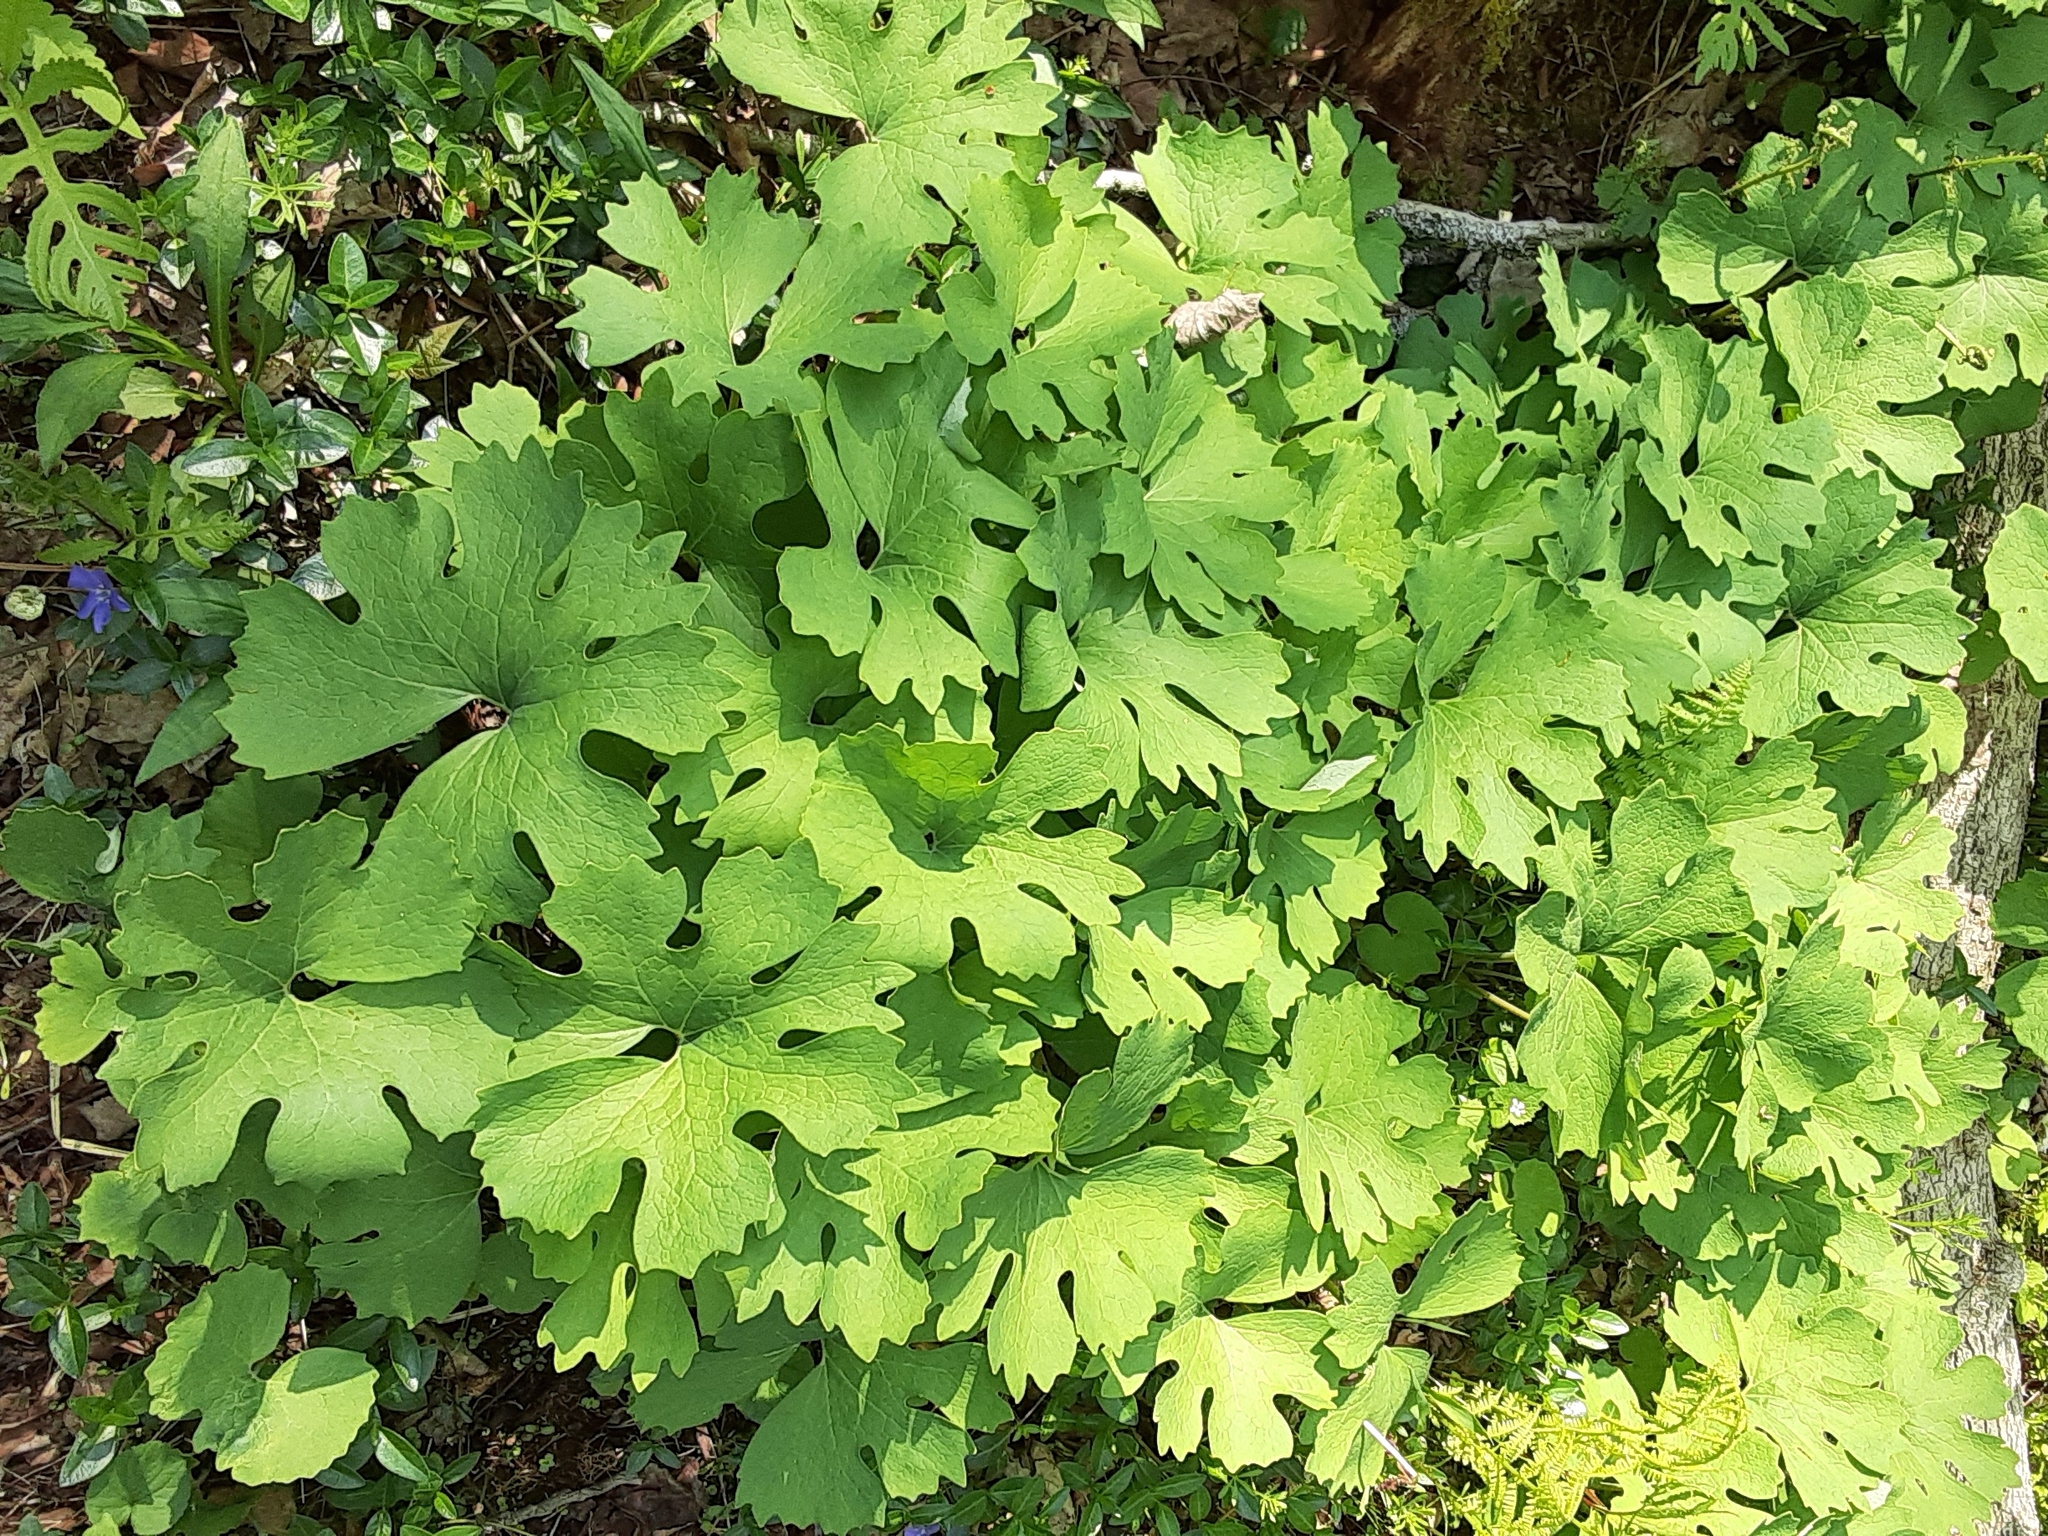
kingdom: Plantae
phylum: Tracheophyta
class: Magnoliopsida
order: Ranunculales
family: Papaveraceae
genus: Sanguinaria
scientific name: Sanguinaria canadensis
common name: Bloodroot
